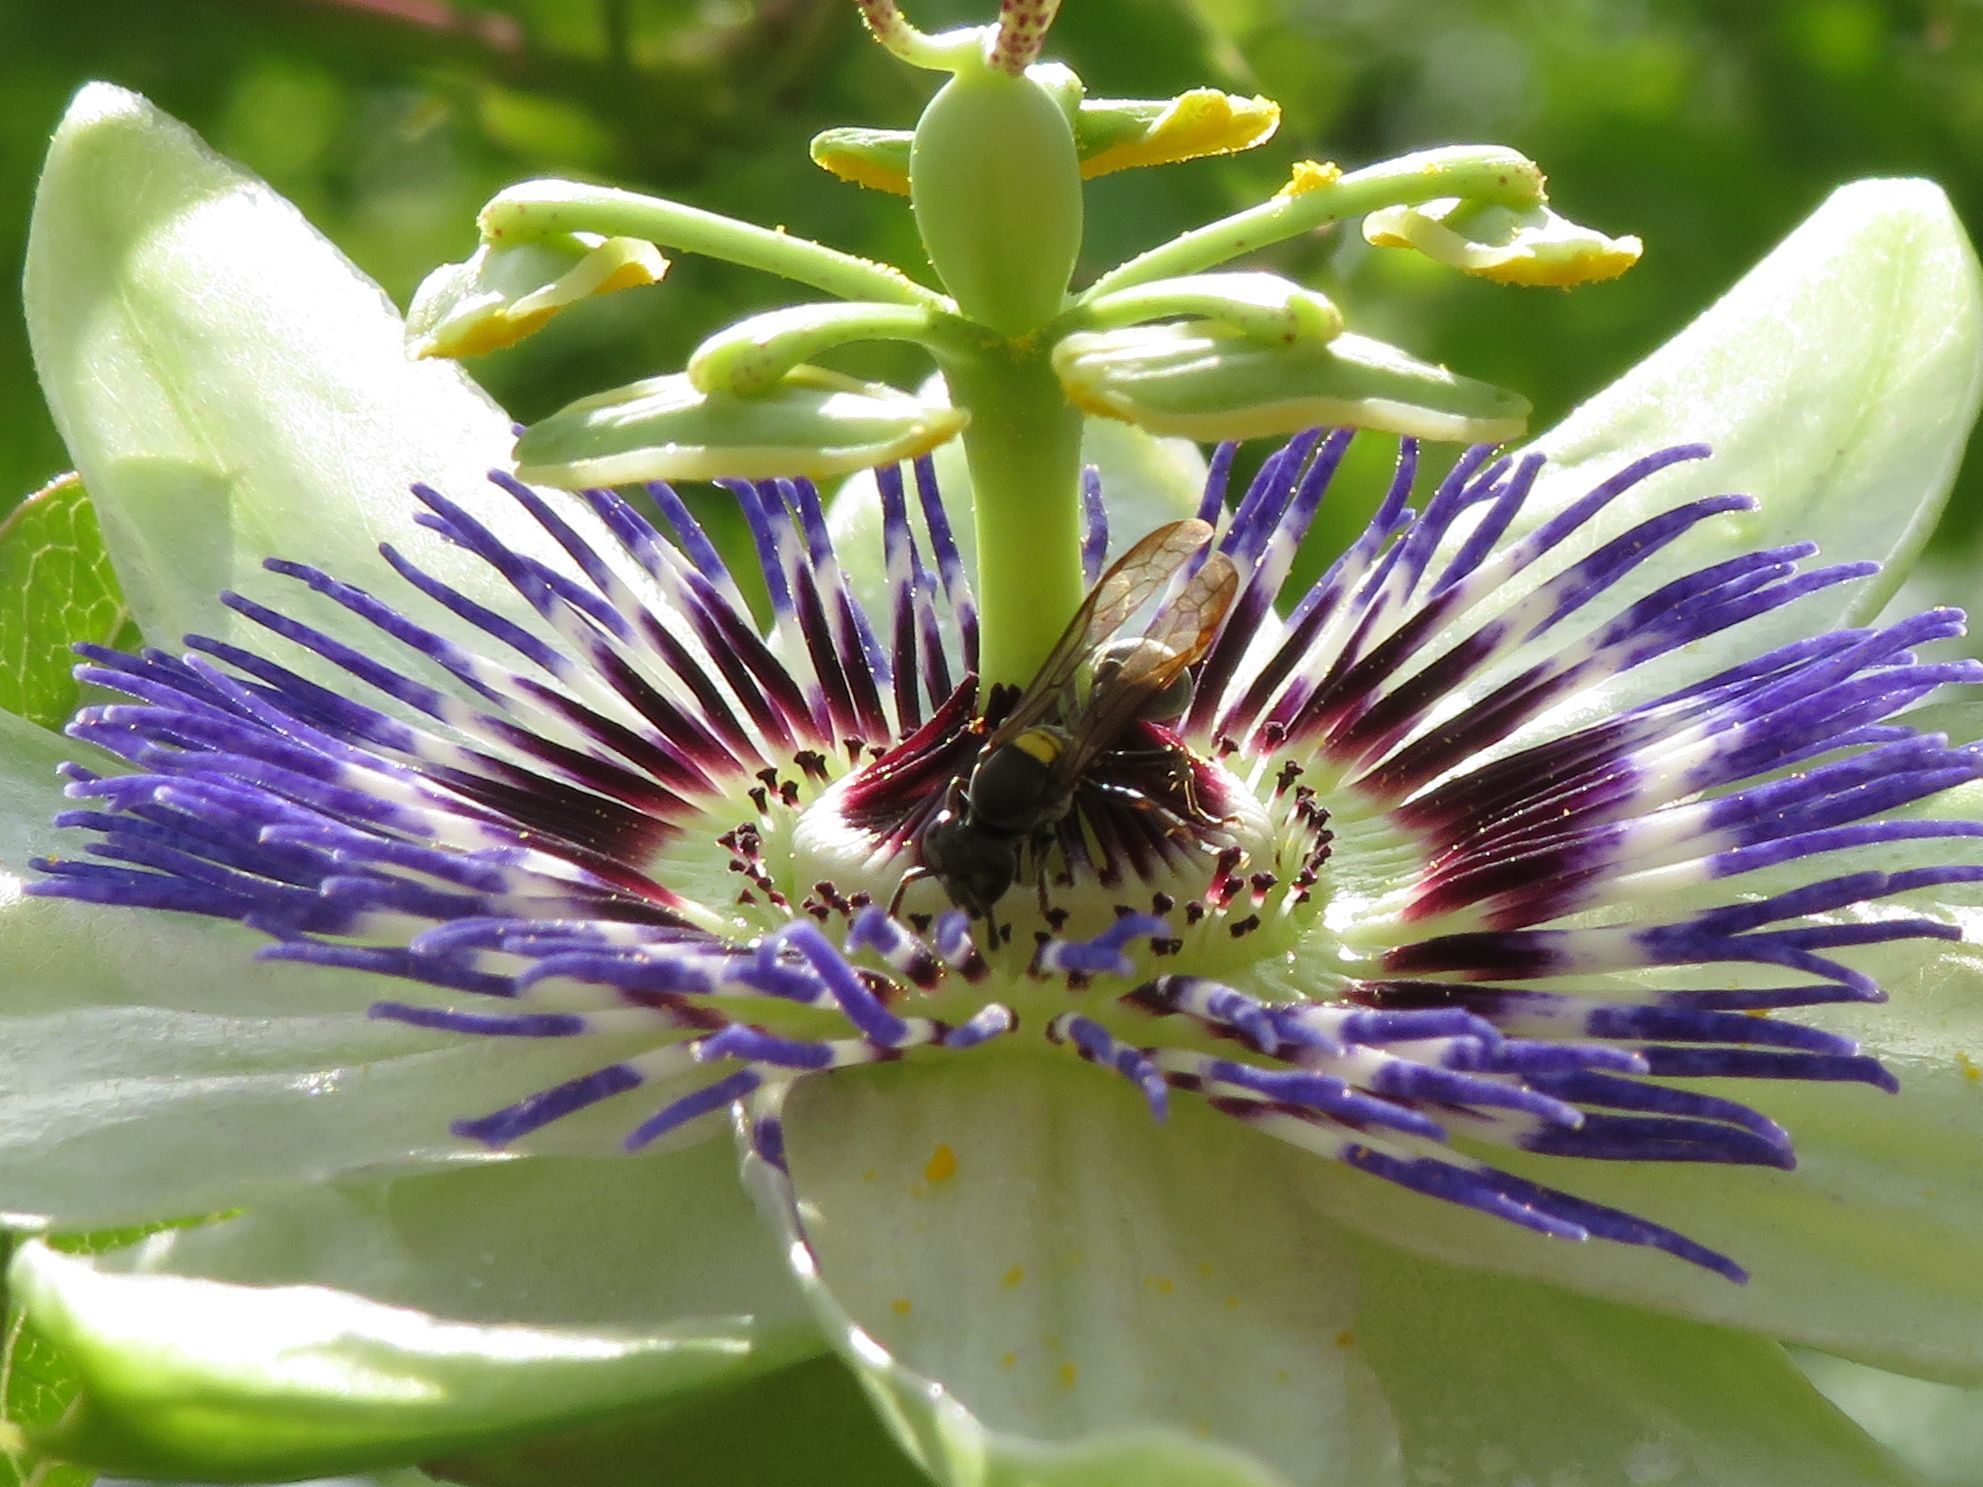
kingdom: Animalia
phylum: Arthropoda
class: Insecta
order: Hymenoptera
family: Eumenidae
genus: Polybia
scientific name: Polybia scutellaris
